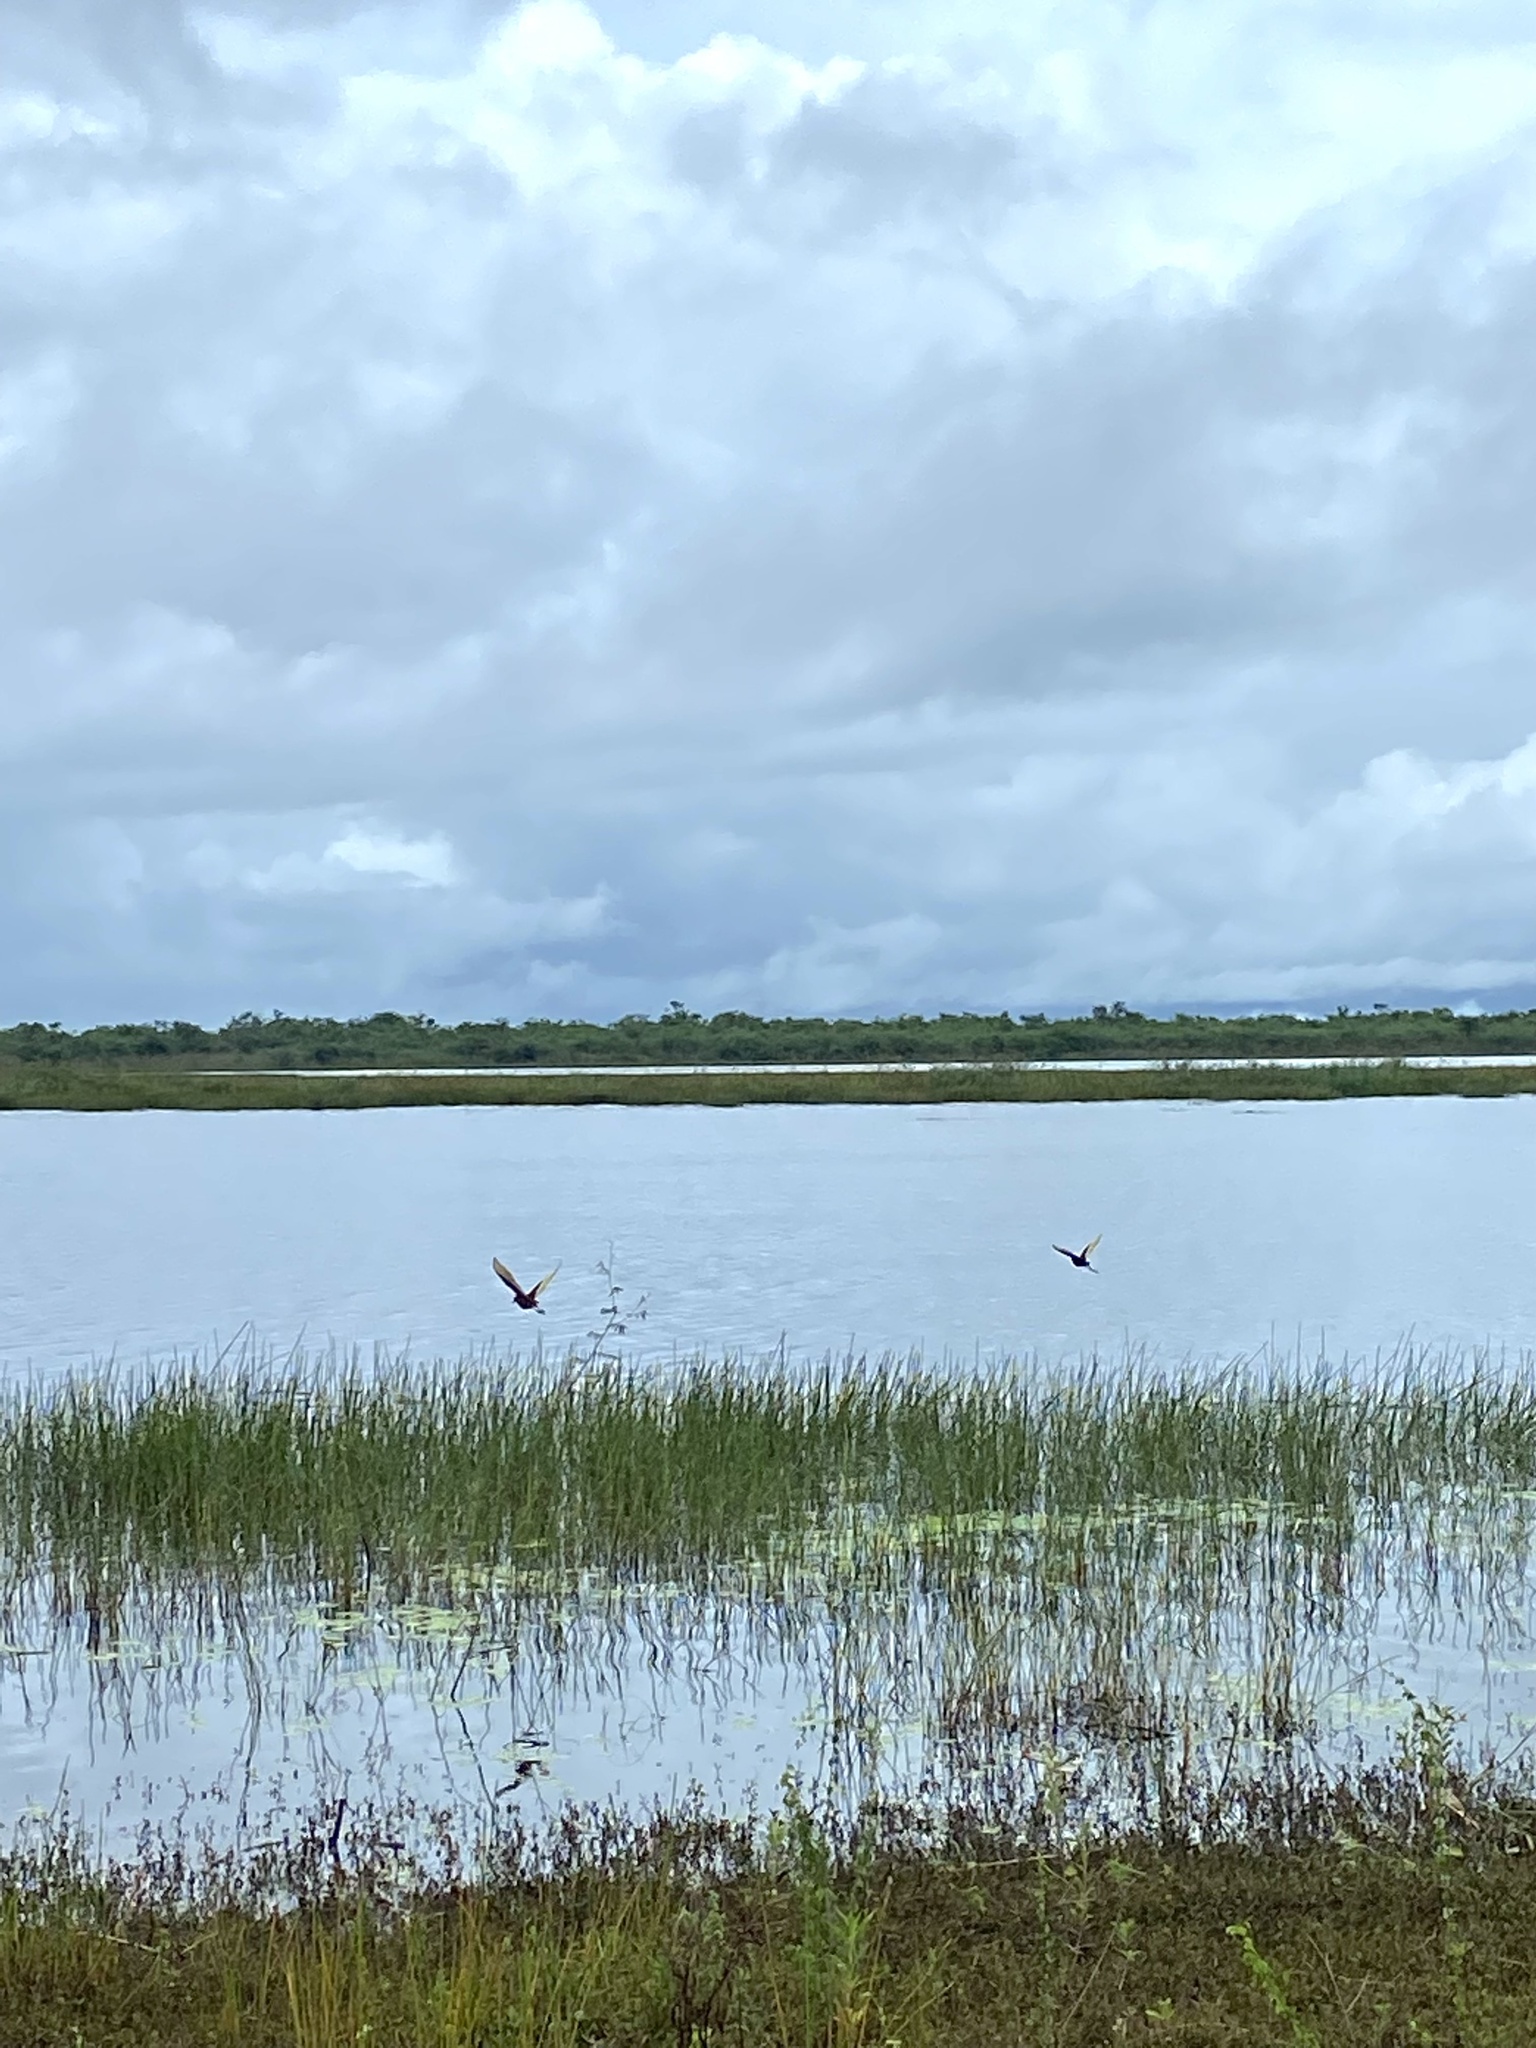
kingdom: Animalia
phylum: Chordata
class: Aves
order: Charadriiformes
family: Jacanidae
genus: Jacana
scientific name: Jacana spinosa
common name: Northern jacana
